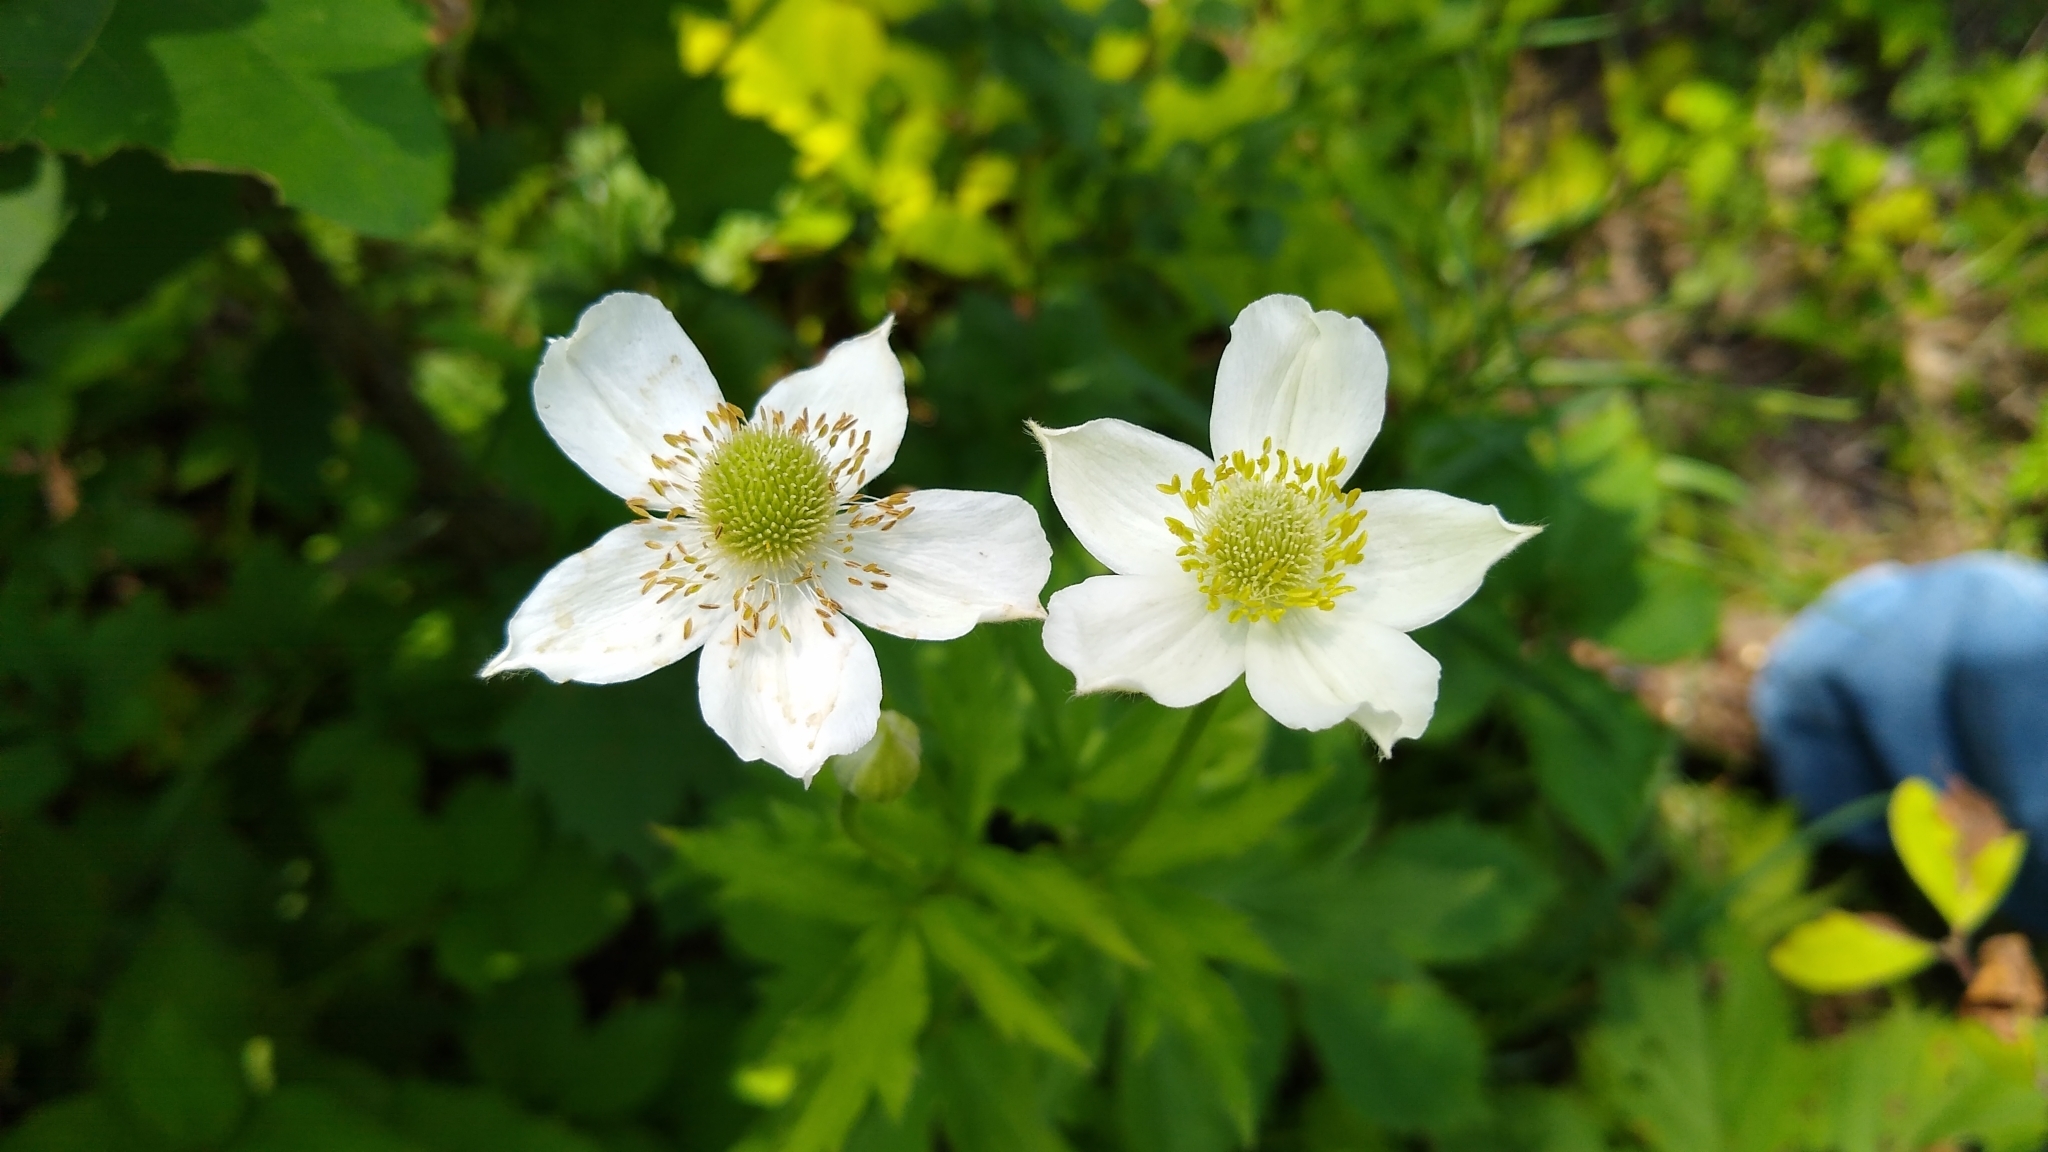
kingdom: Plantae
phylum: Tracheophyta
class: Magnoliopsida
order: Ranunculales
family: Ranunculaceae
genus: Anemone
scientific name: Anemone virginiana
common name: Tall anemone
